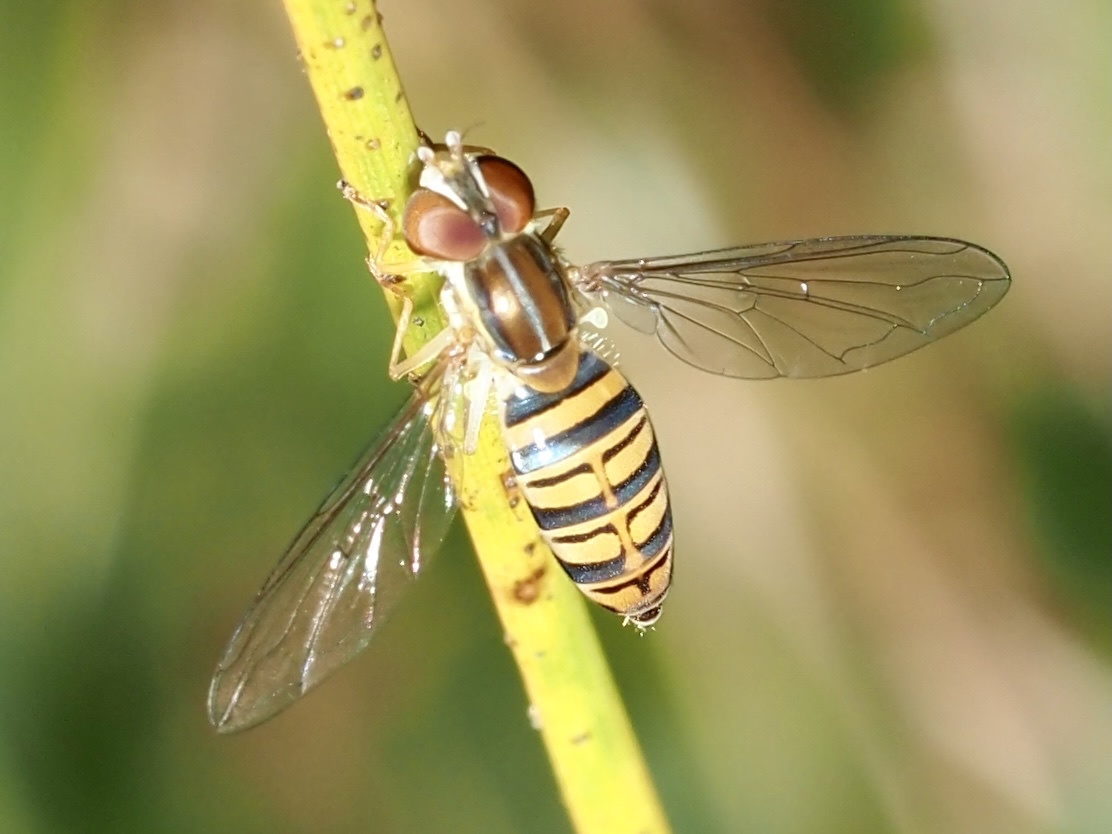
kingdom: Animalia
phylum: Arthropoda
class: Insecta
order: Diptera
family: Syrphidae
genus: Toxomerus
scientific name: Toxomerus politus
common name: Maize calligrapher
